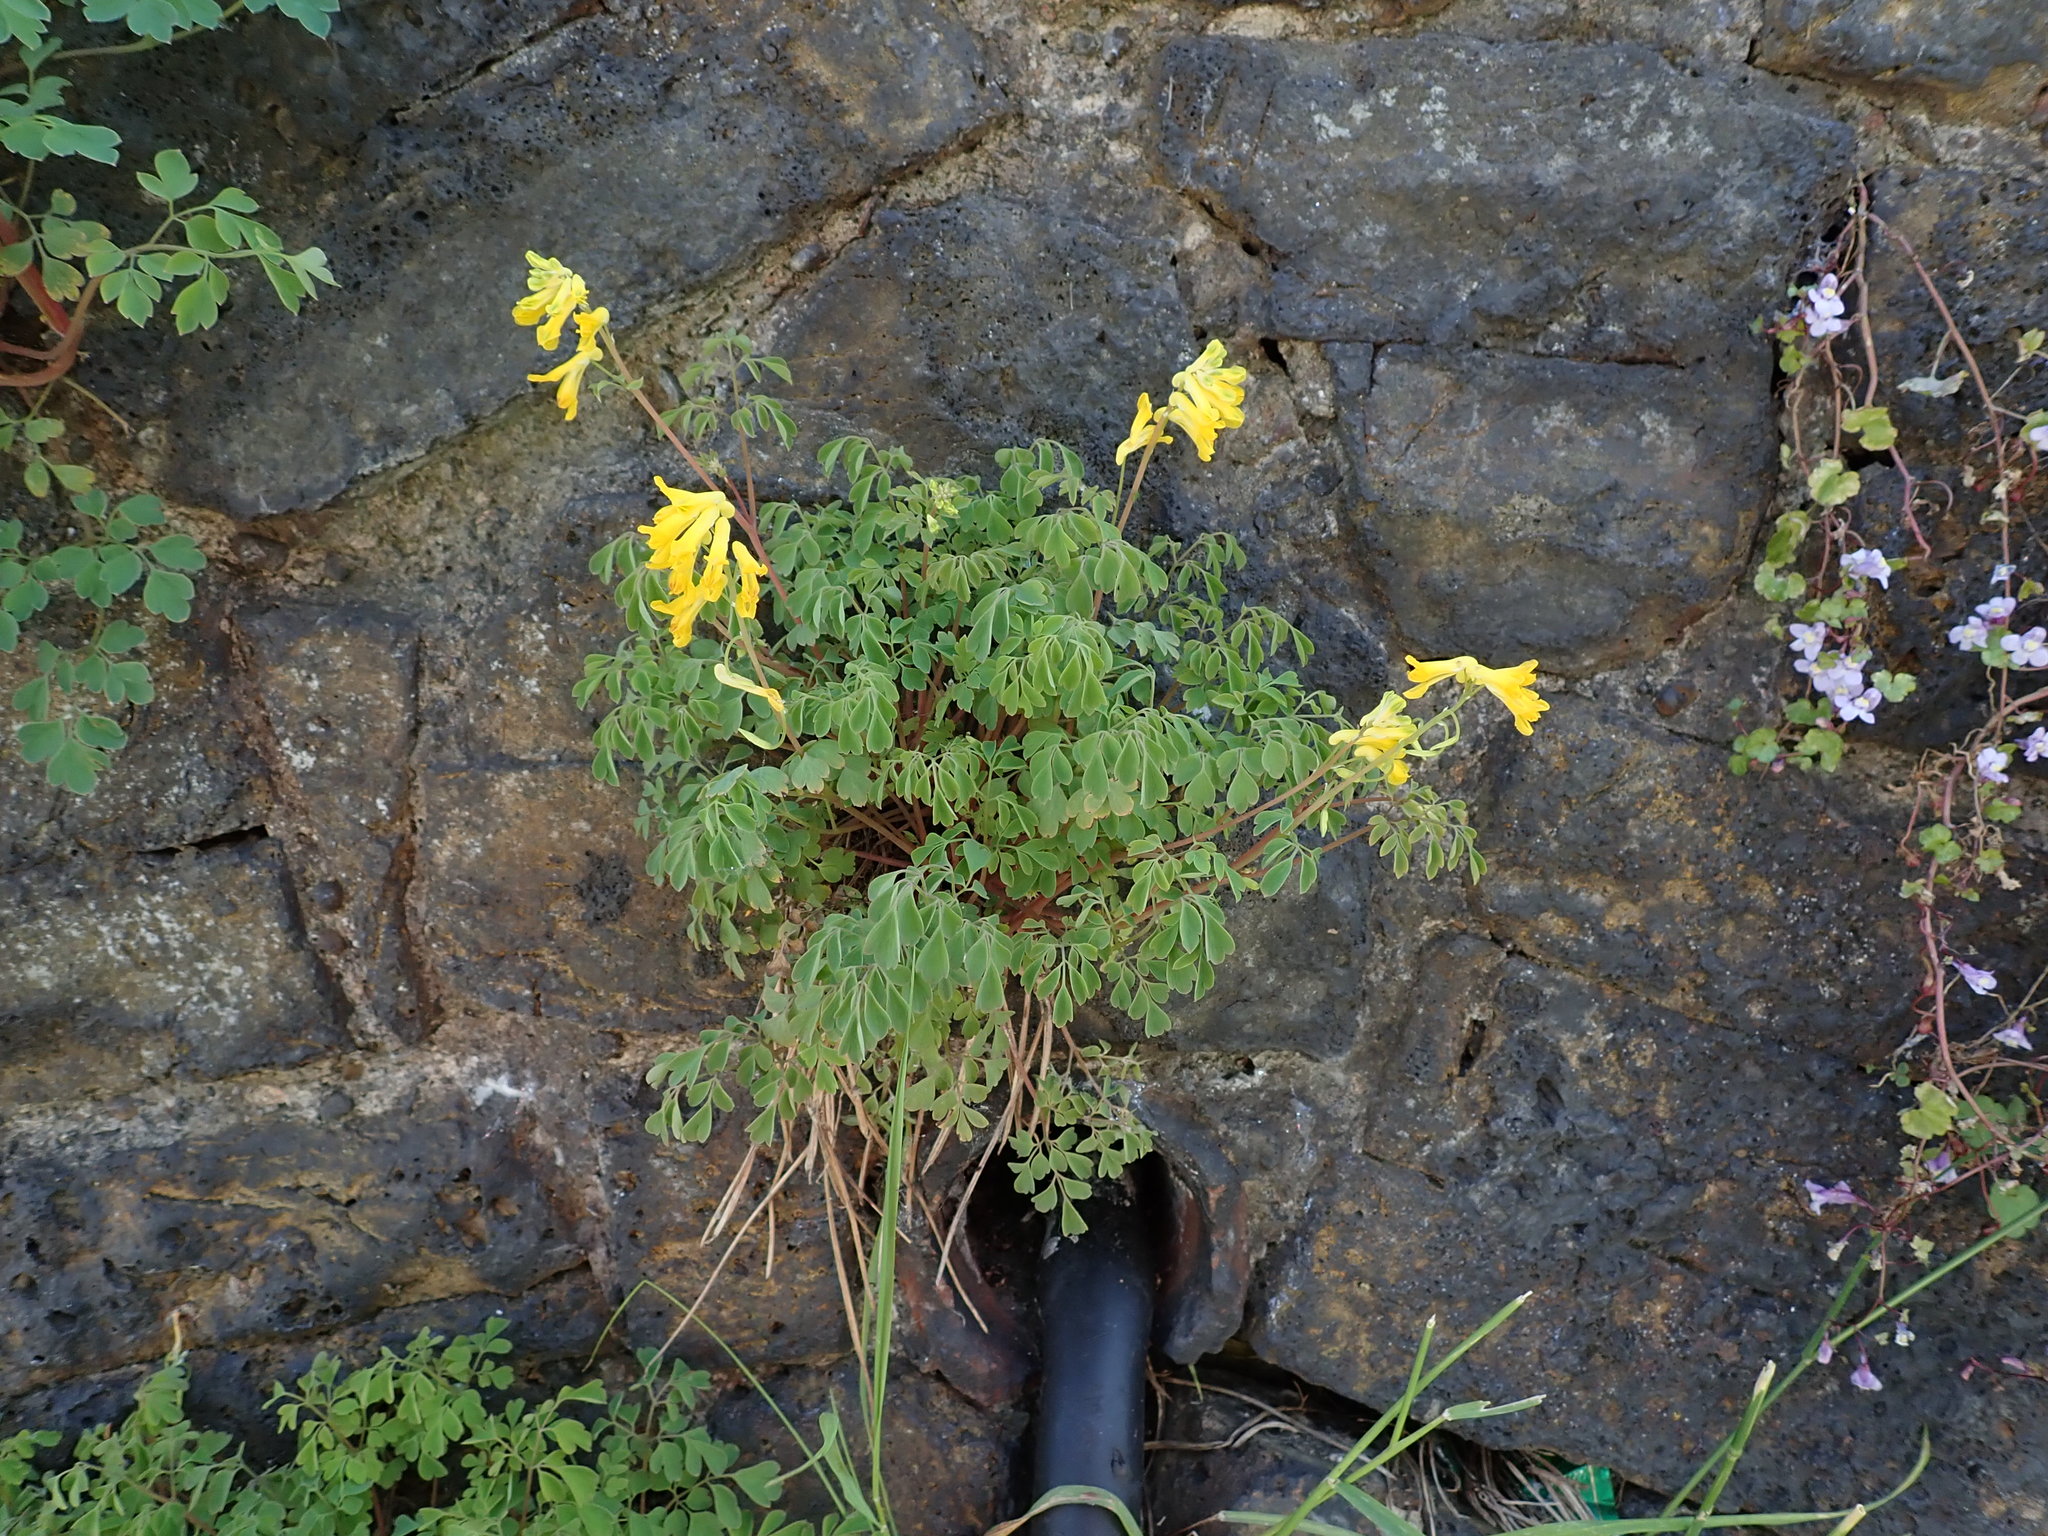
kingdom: Plantae
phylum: Tracheophyta
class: Magnoliopsida
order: Ranunculales
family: Papaveraceae
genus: Pseudofumaria
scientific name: Pseudofumaria lutea
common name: Yellow corydalis
